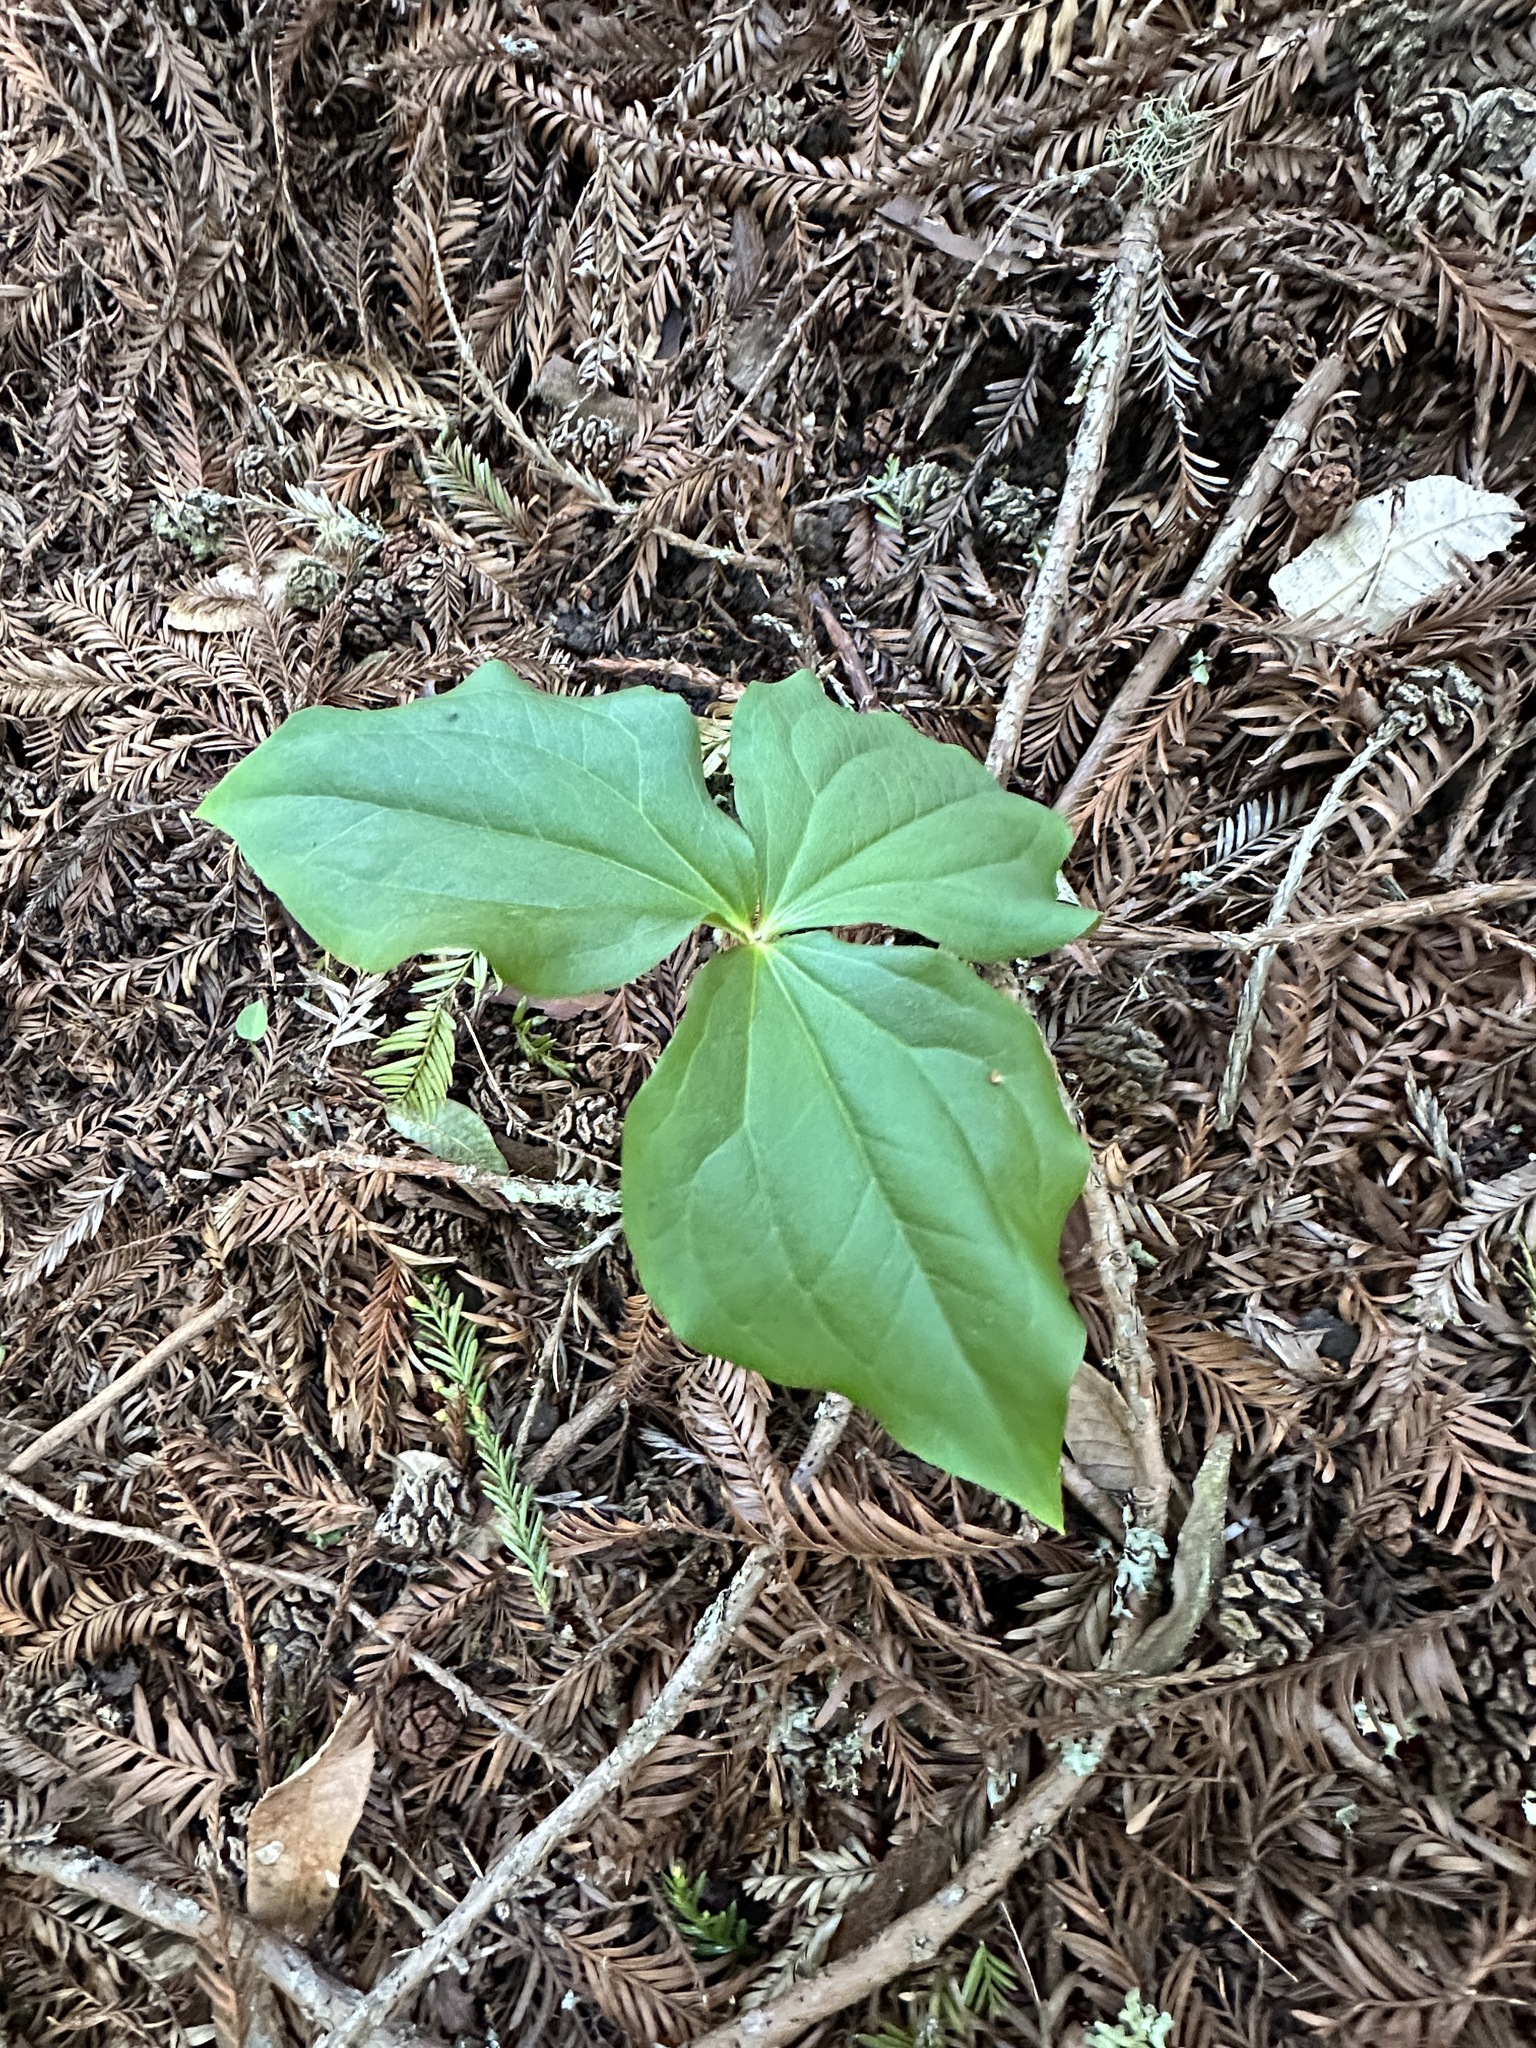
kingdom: Plantae
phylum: Tracheophyta
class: Liliopsida
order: Liliales
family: Melanthiaceae
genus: Trillium
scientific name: Trillium ovatum
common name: Pacific trillium
